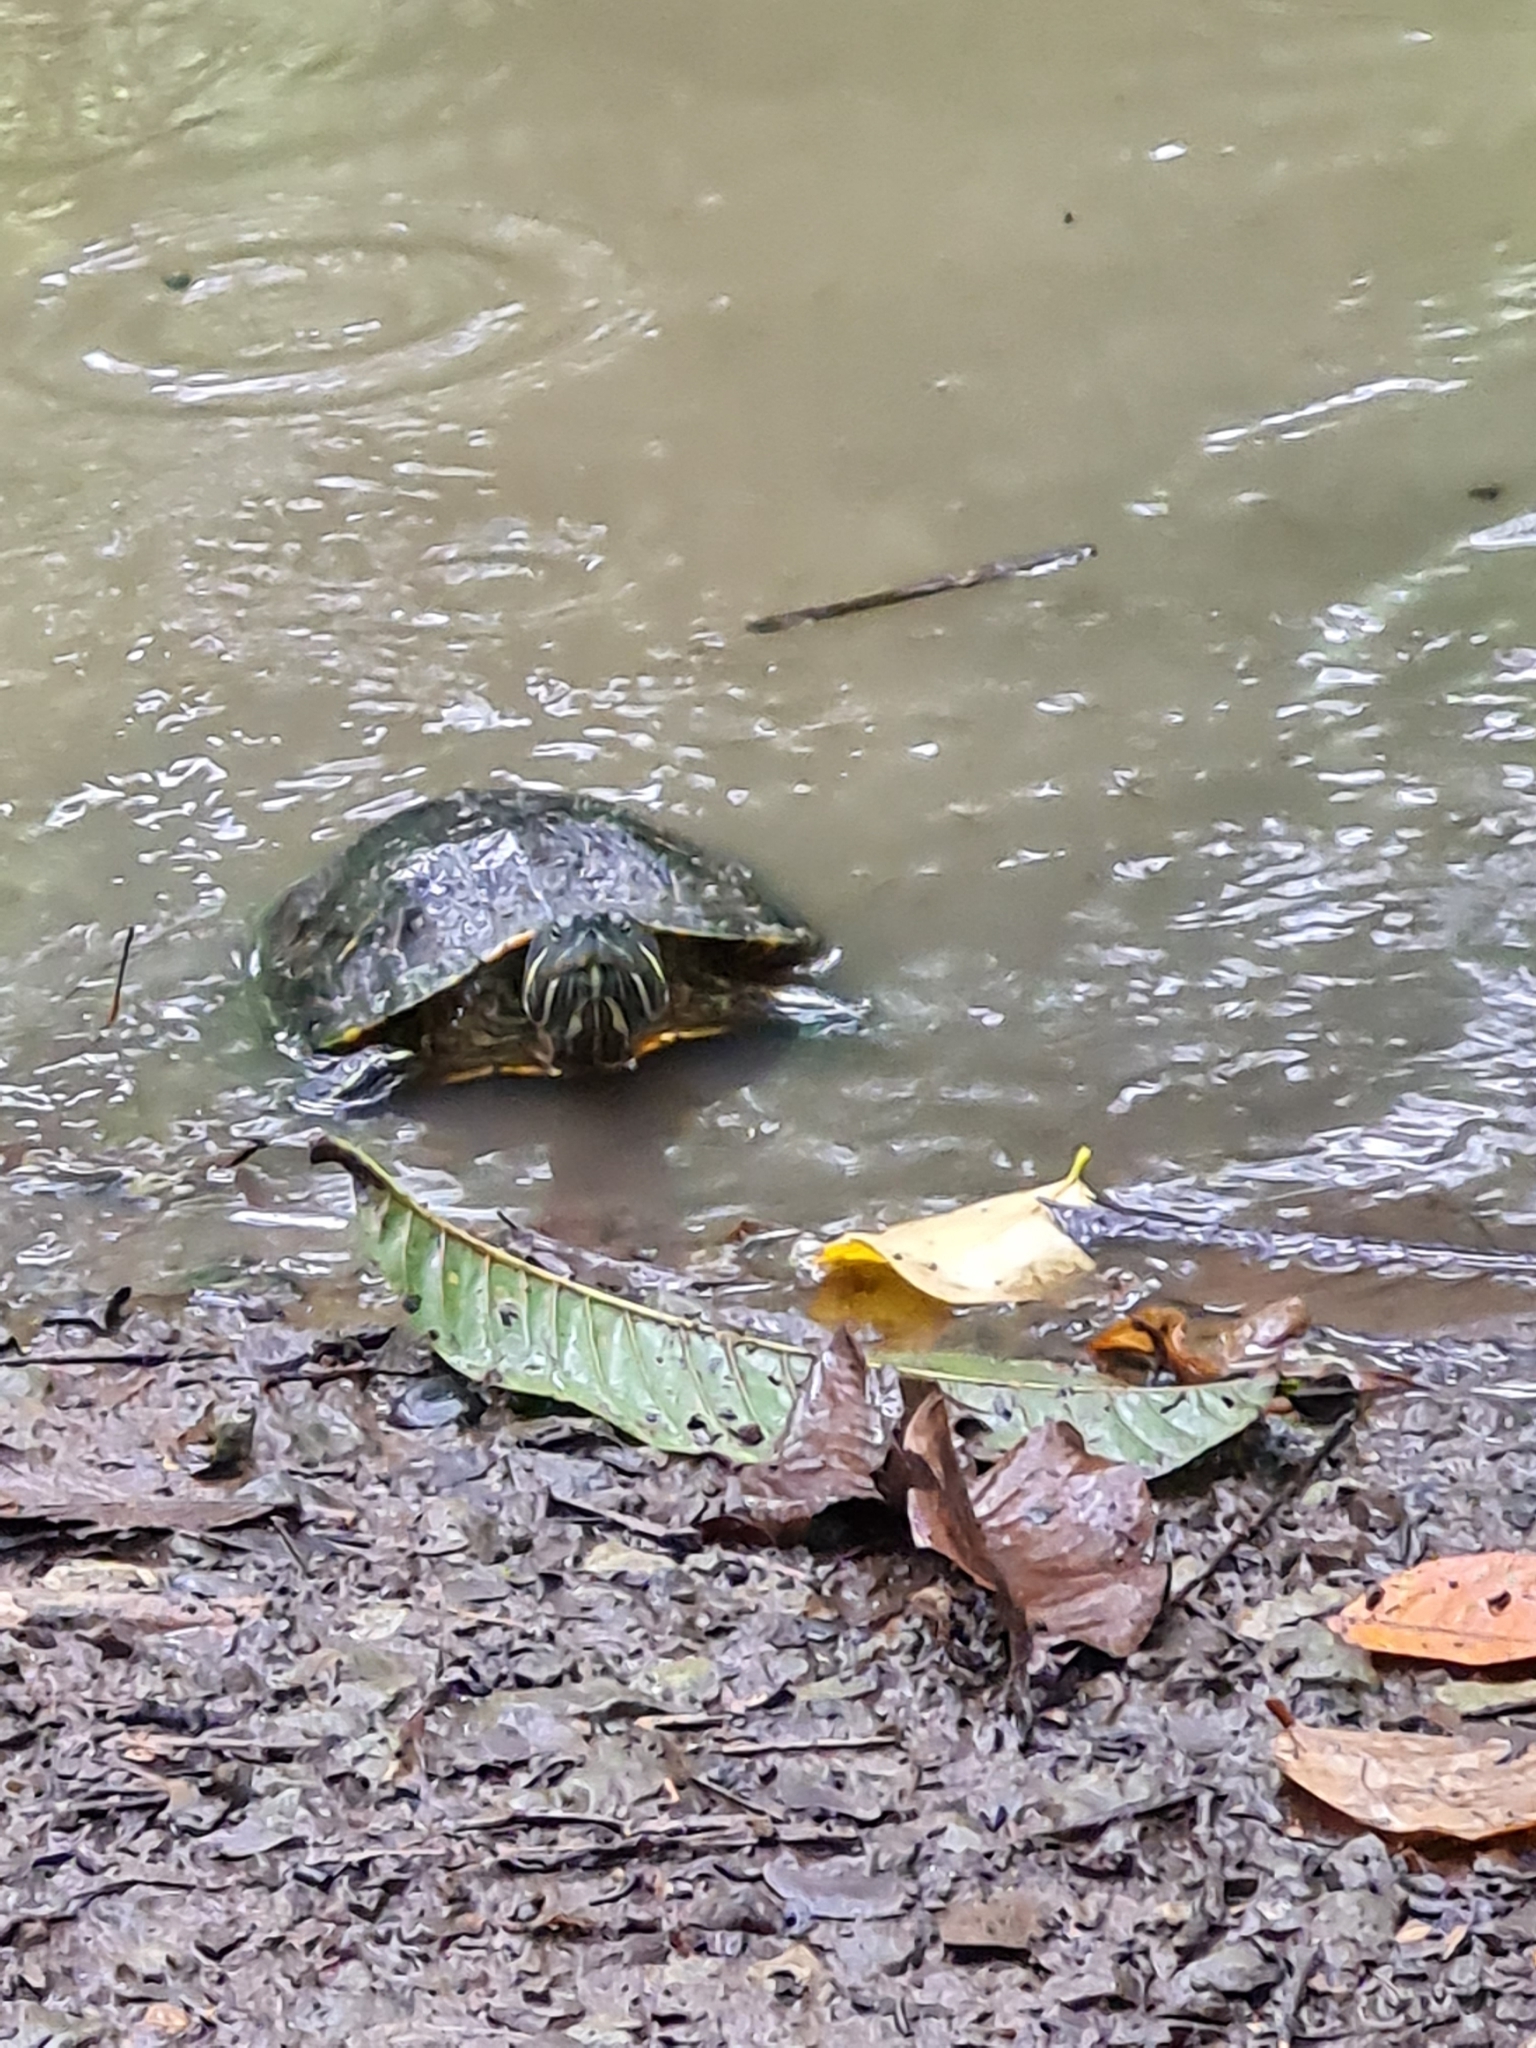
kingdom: Animalia
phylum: Chordata
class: Testudines
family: Emydidae
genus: Trachemys
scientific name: Trachemys grayi
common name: Gray's slider
